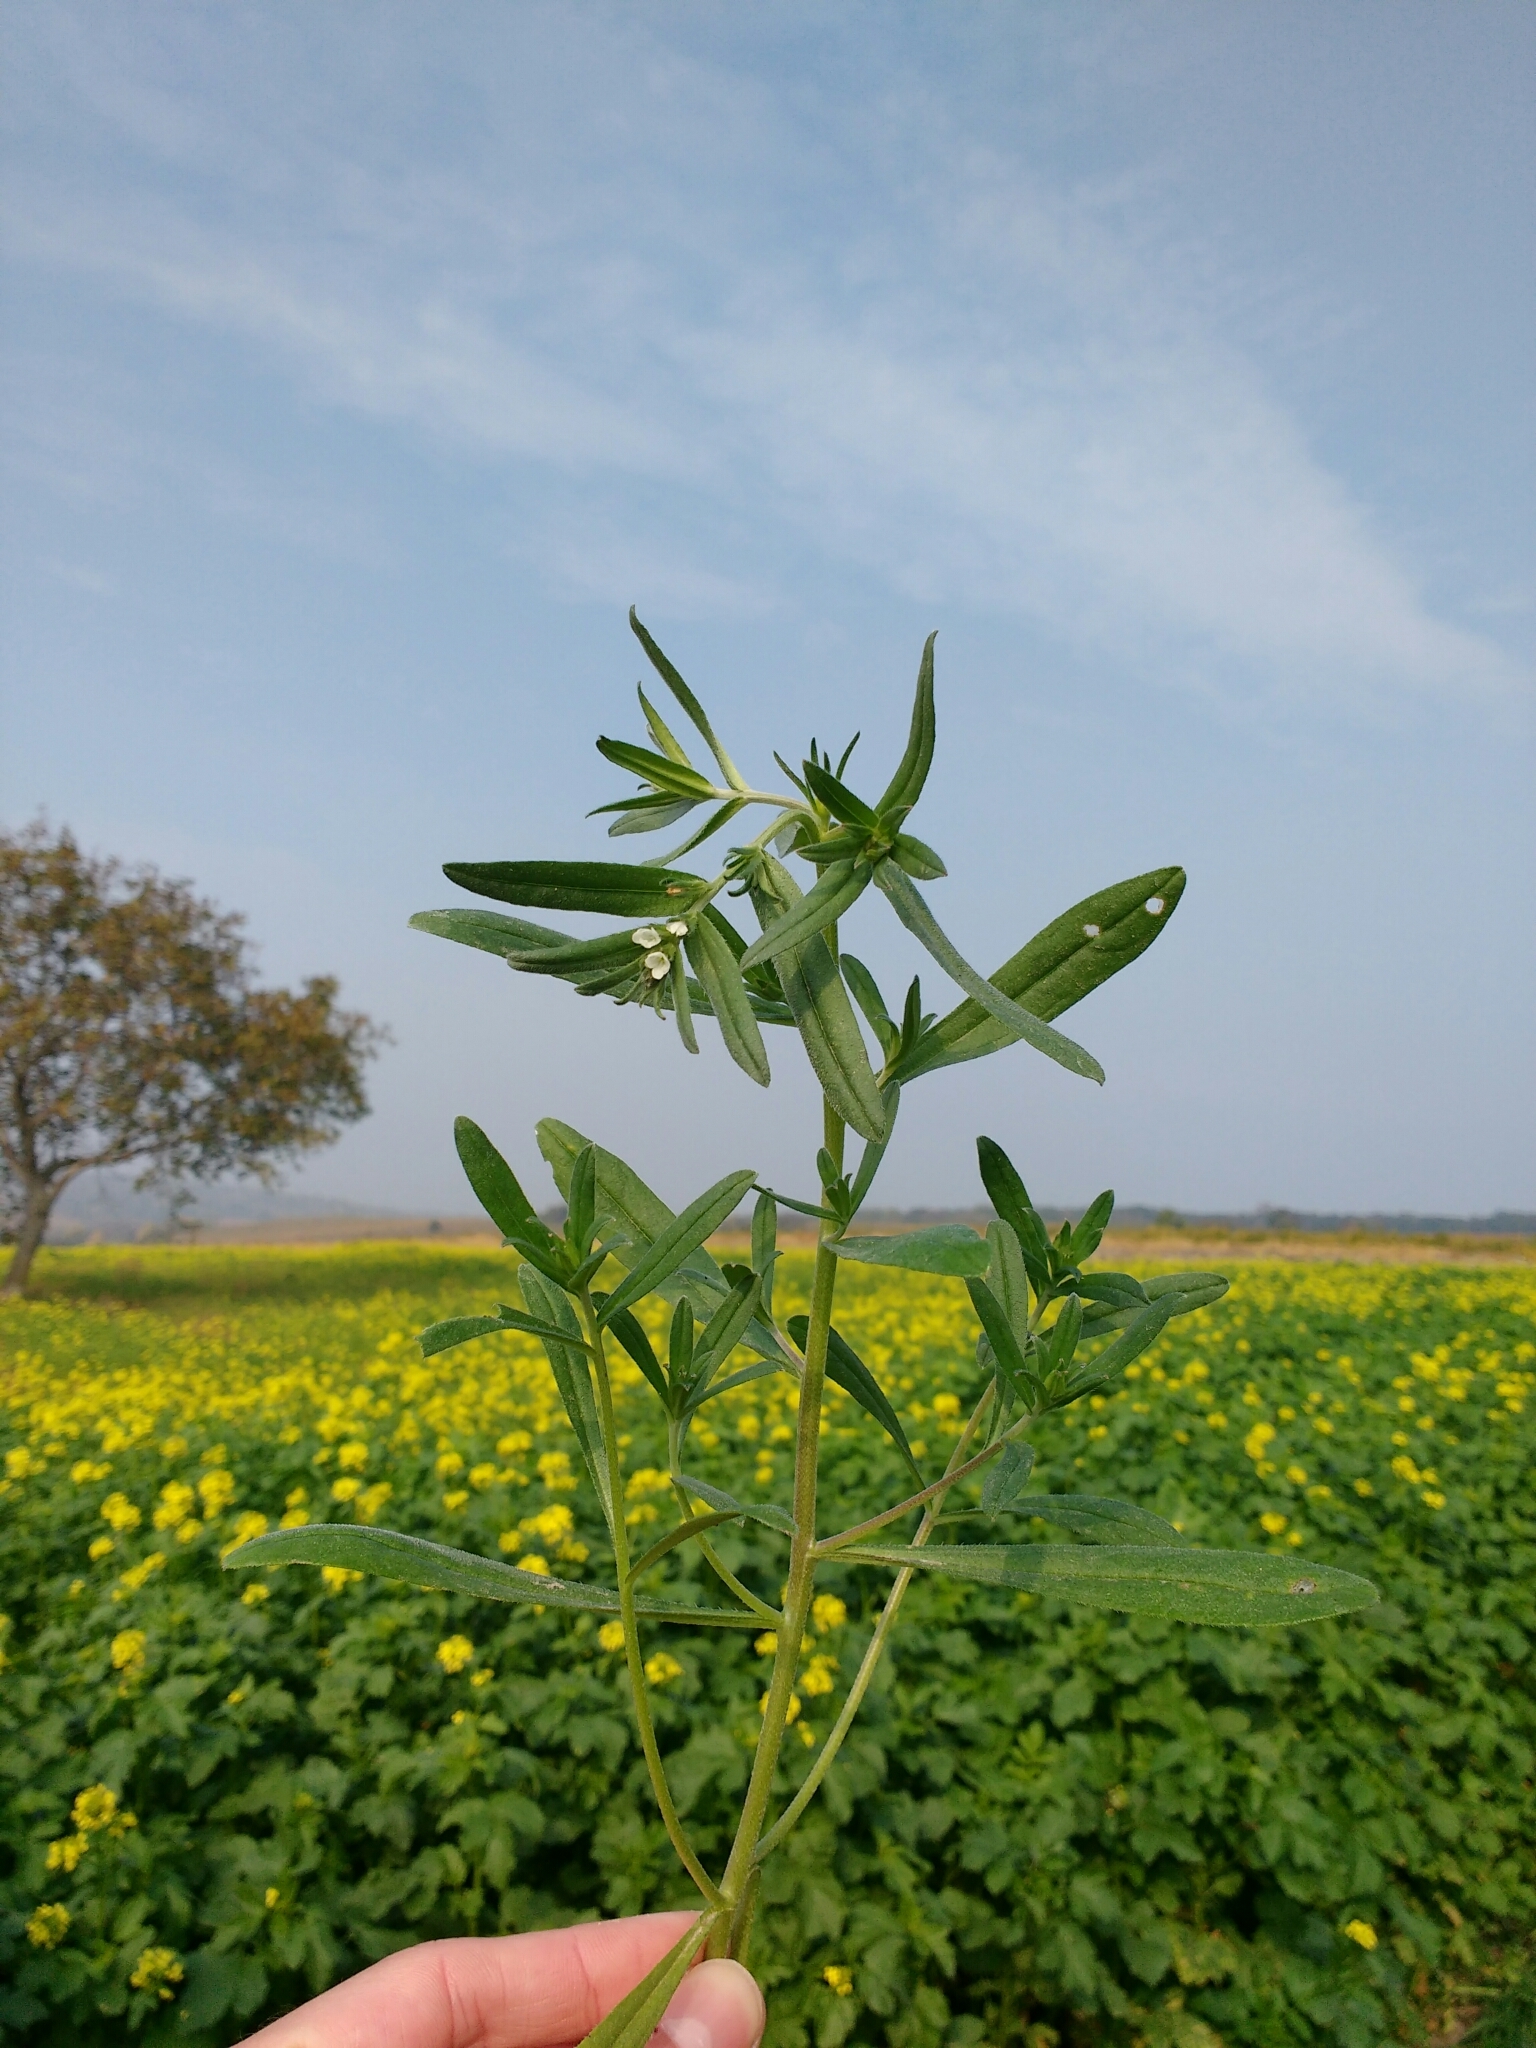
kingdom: Plantae
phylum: Tracheophyta
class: Magnoliopsida
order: Boraginales
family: Boraginaceae
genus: Buglossoides
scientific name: Buglossoides arvensis
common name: Corn gromwell
